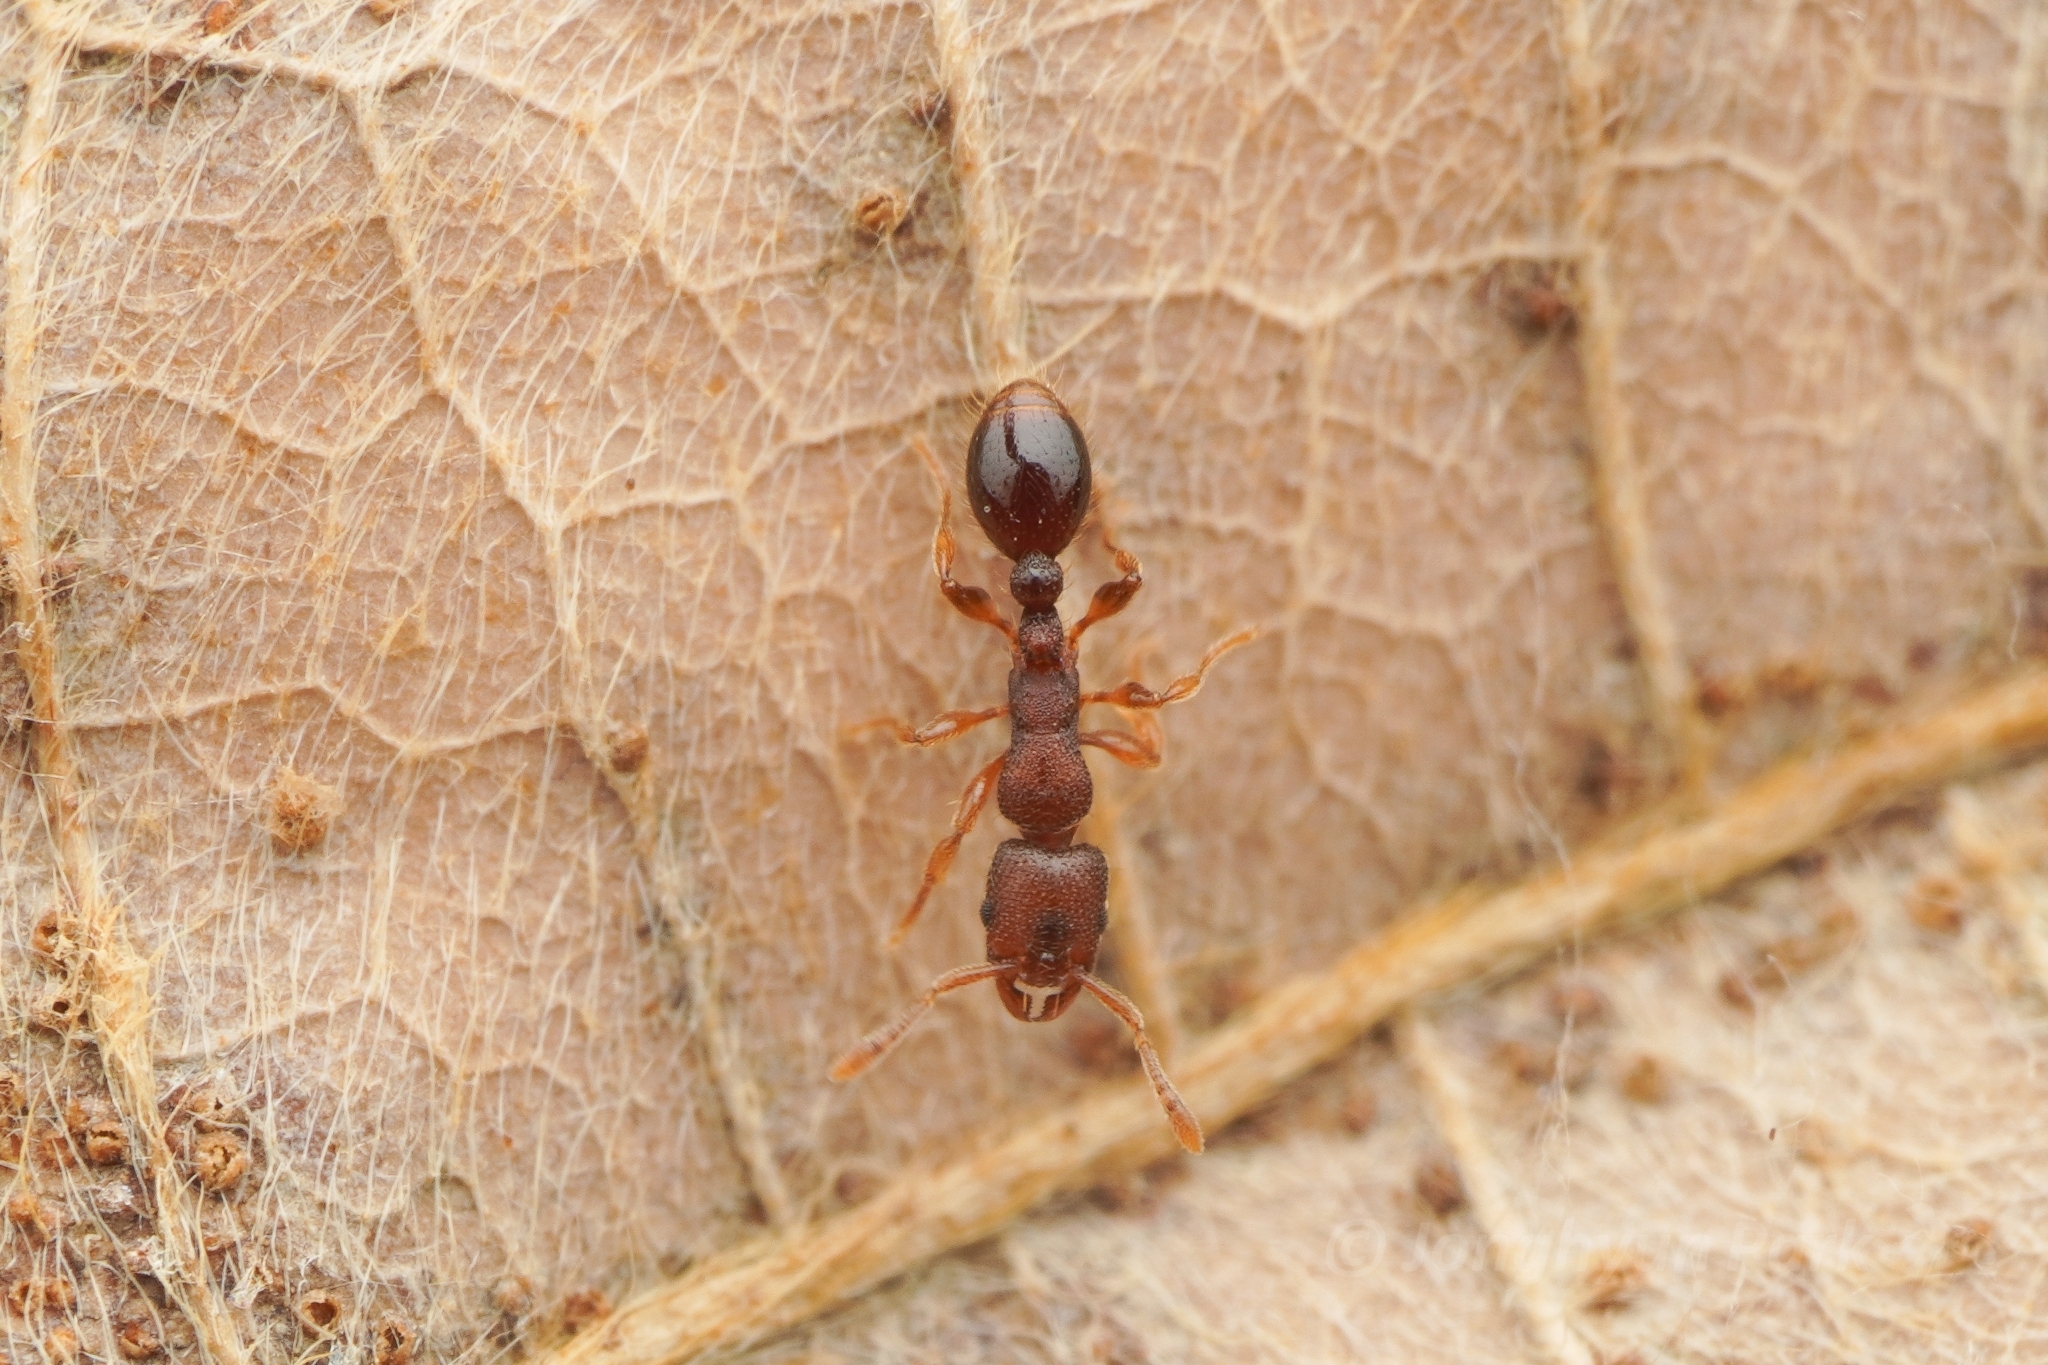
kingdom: Animalia
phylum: Arthropoda
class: Insecta
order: Hymenoptera
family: Formicidae
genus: Vollenhovia
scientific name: Vollenhovia emeryi
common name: Ant
